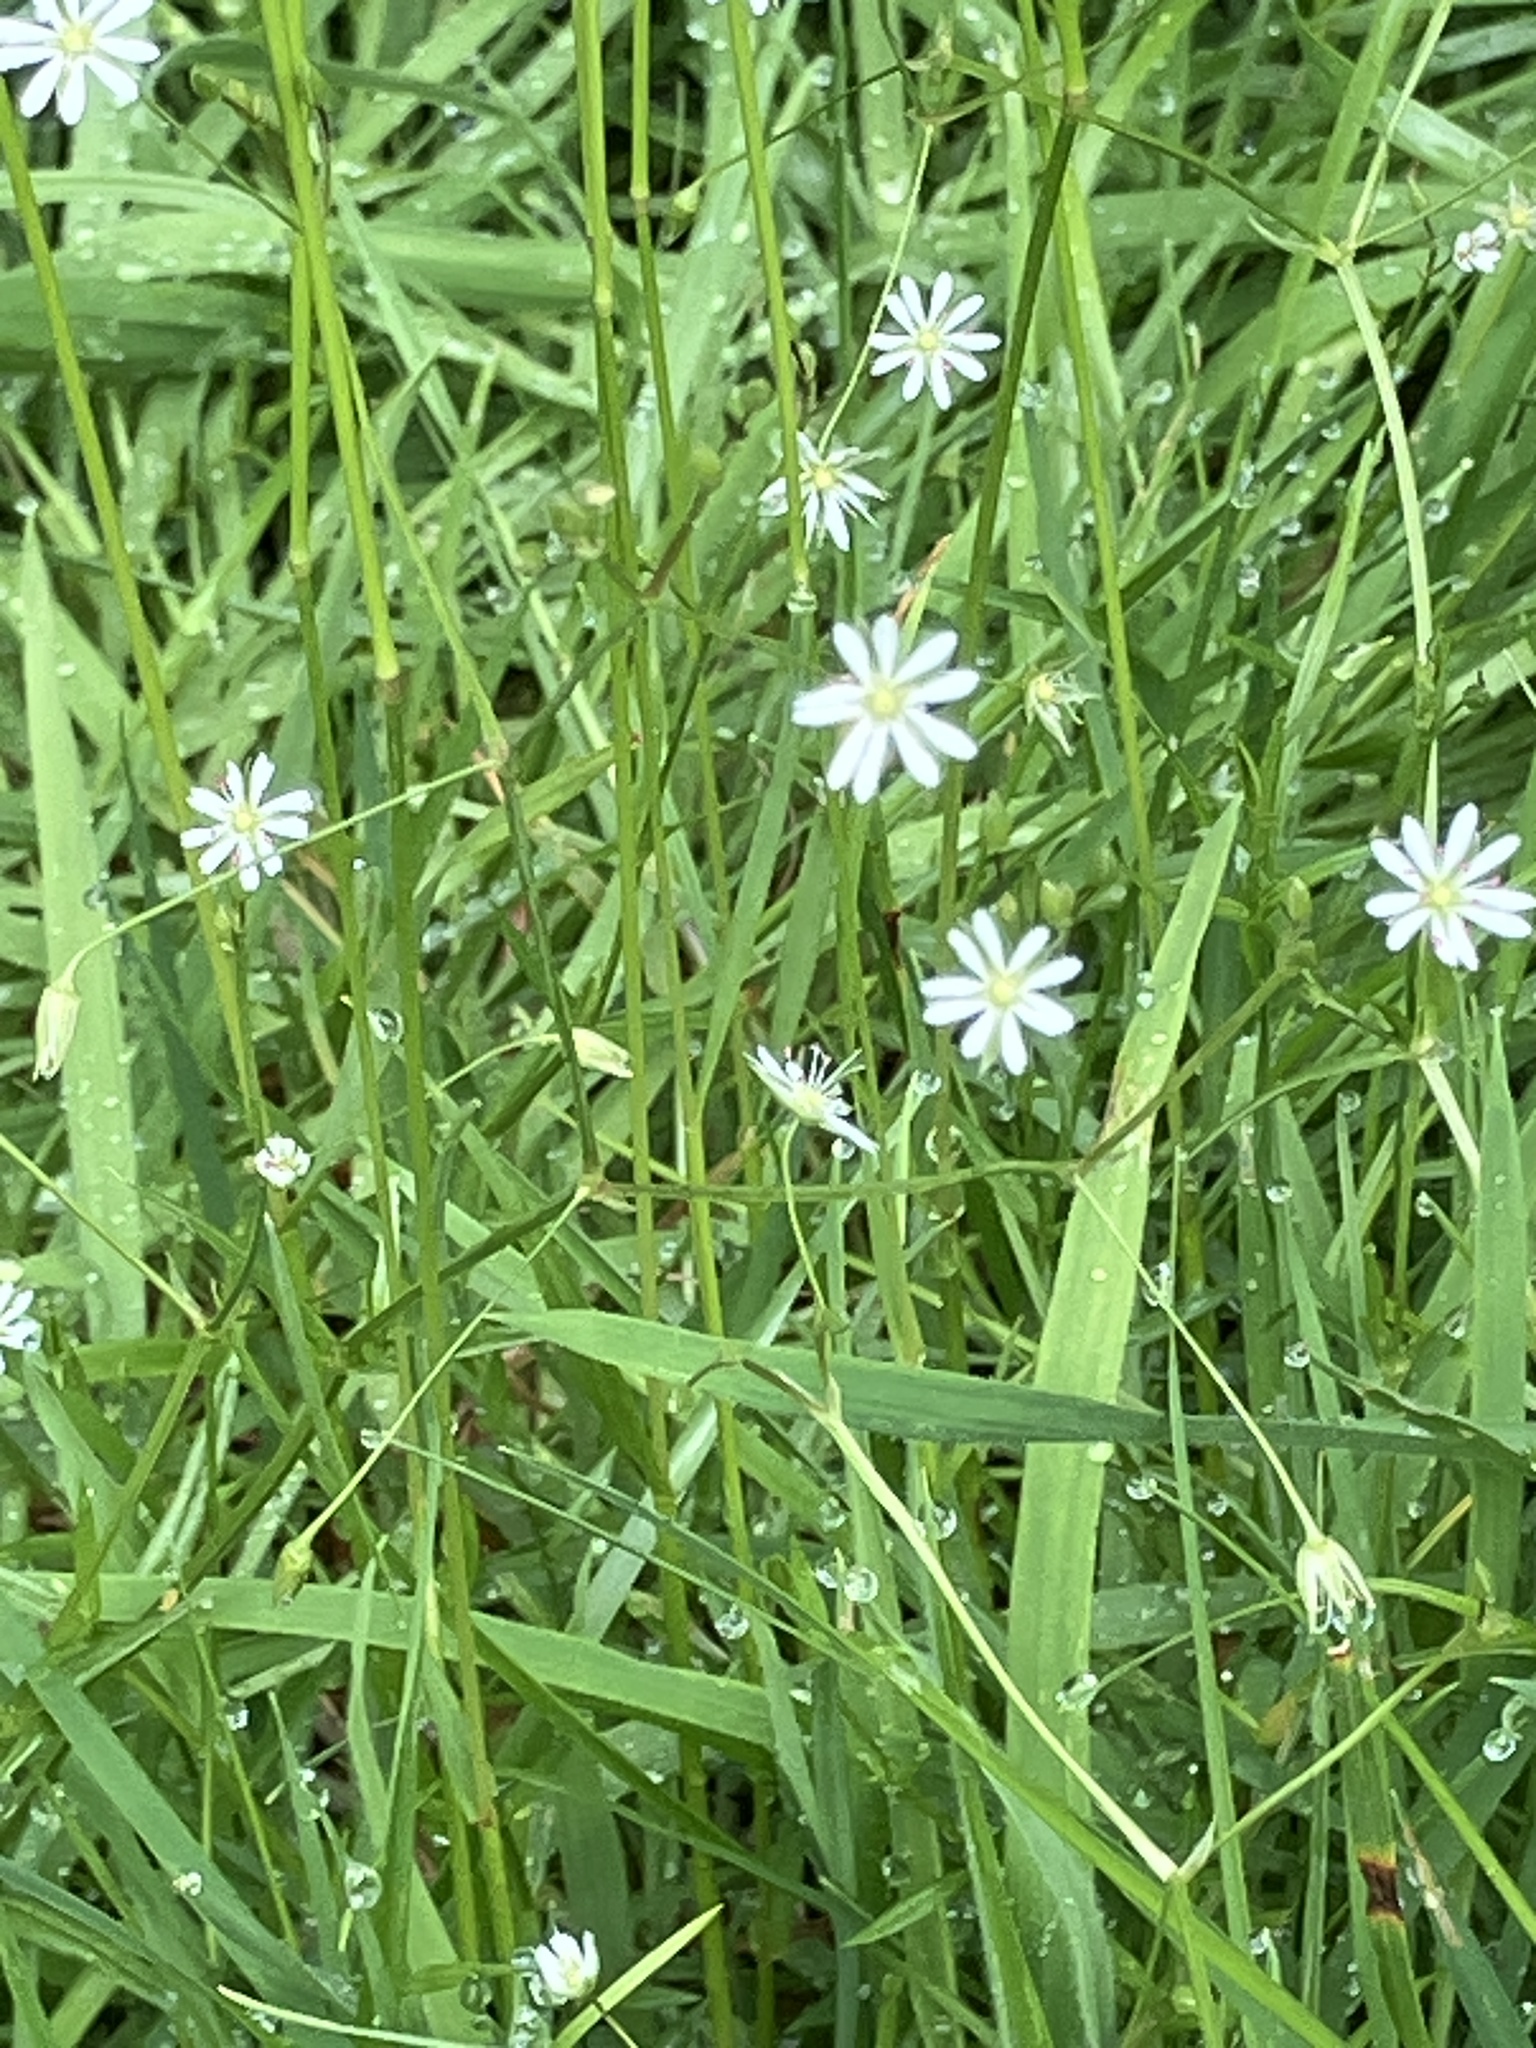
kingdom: Plantae
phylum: Tracheophyta
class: Magnoliopsida
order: Caryophyllales
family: Caryophyllaceae
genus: Stellaria
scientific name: Stellaria graminea
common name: Grass-like starwort
